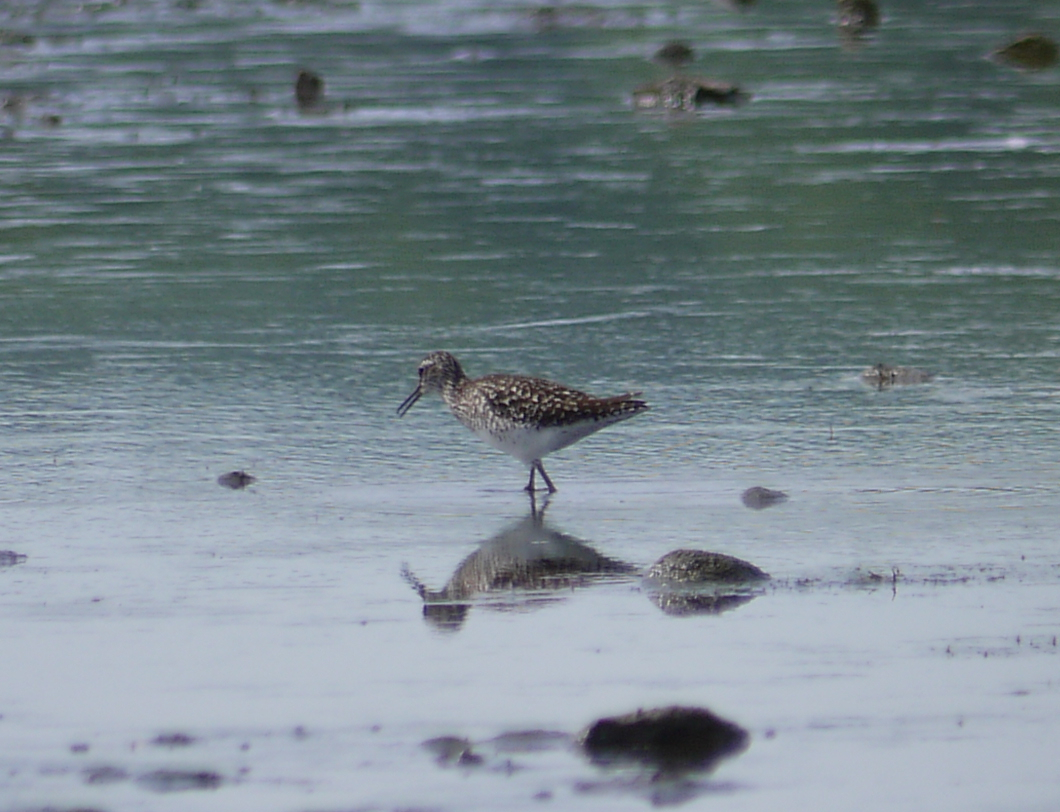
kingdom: Animalia
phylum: Chordata
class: Aves
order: Charadriiformes
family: Scolopacidae
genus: Tringa
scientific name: Tringa glareola
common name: Wood sandpiper
